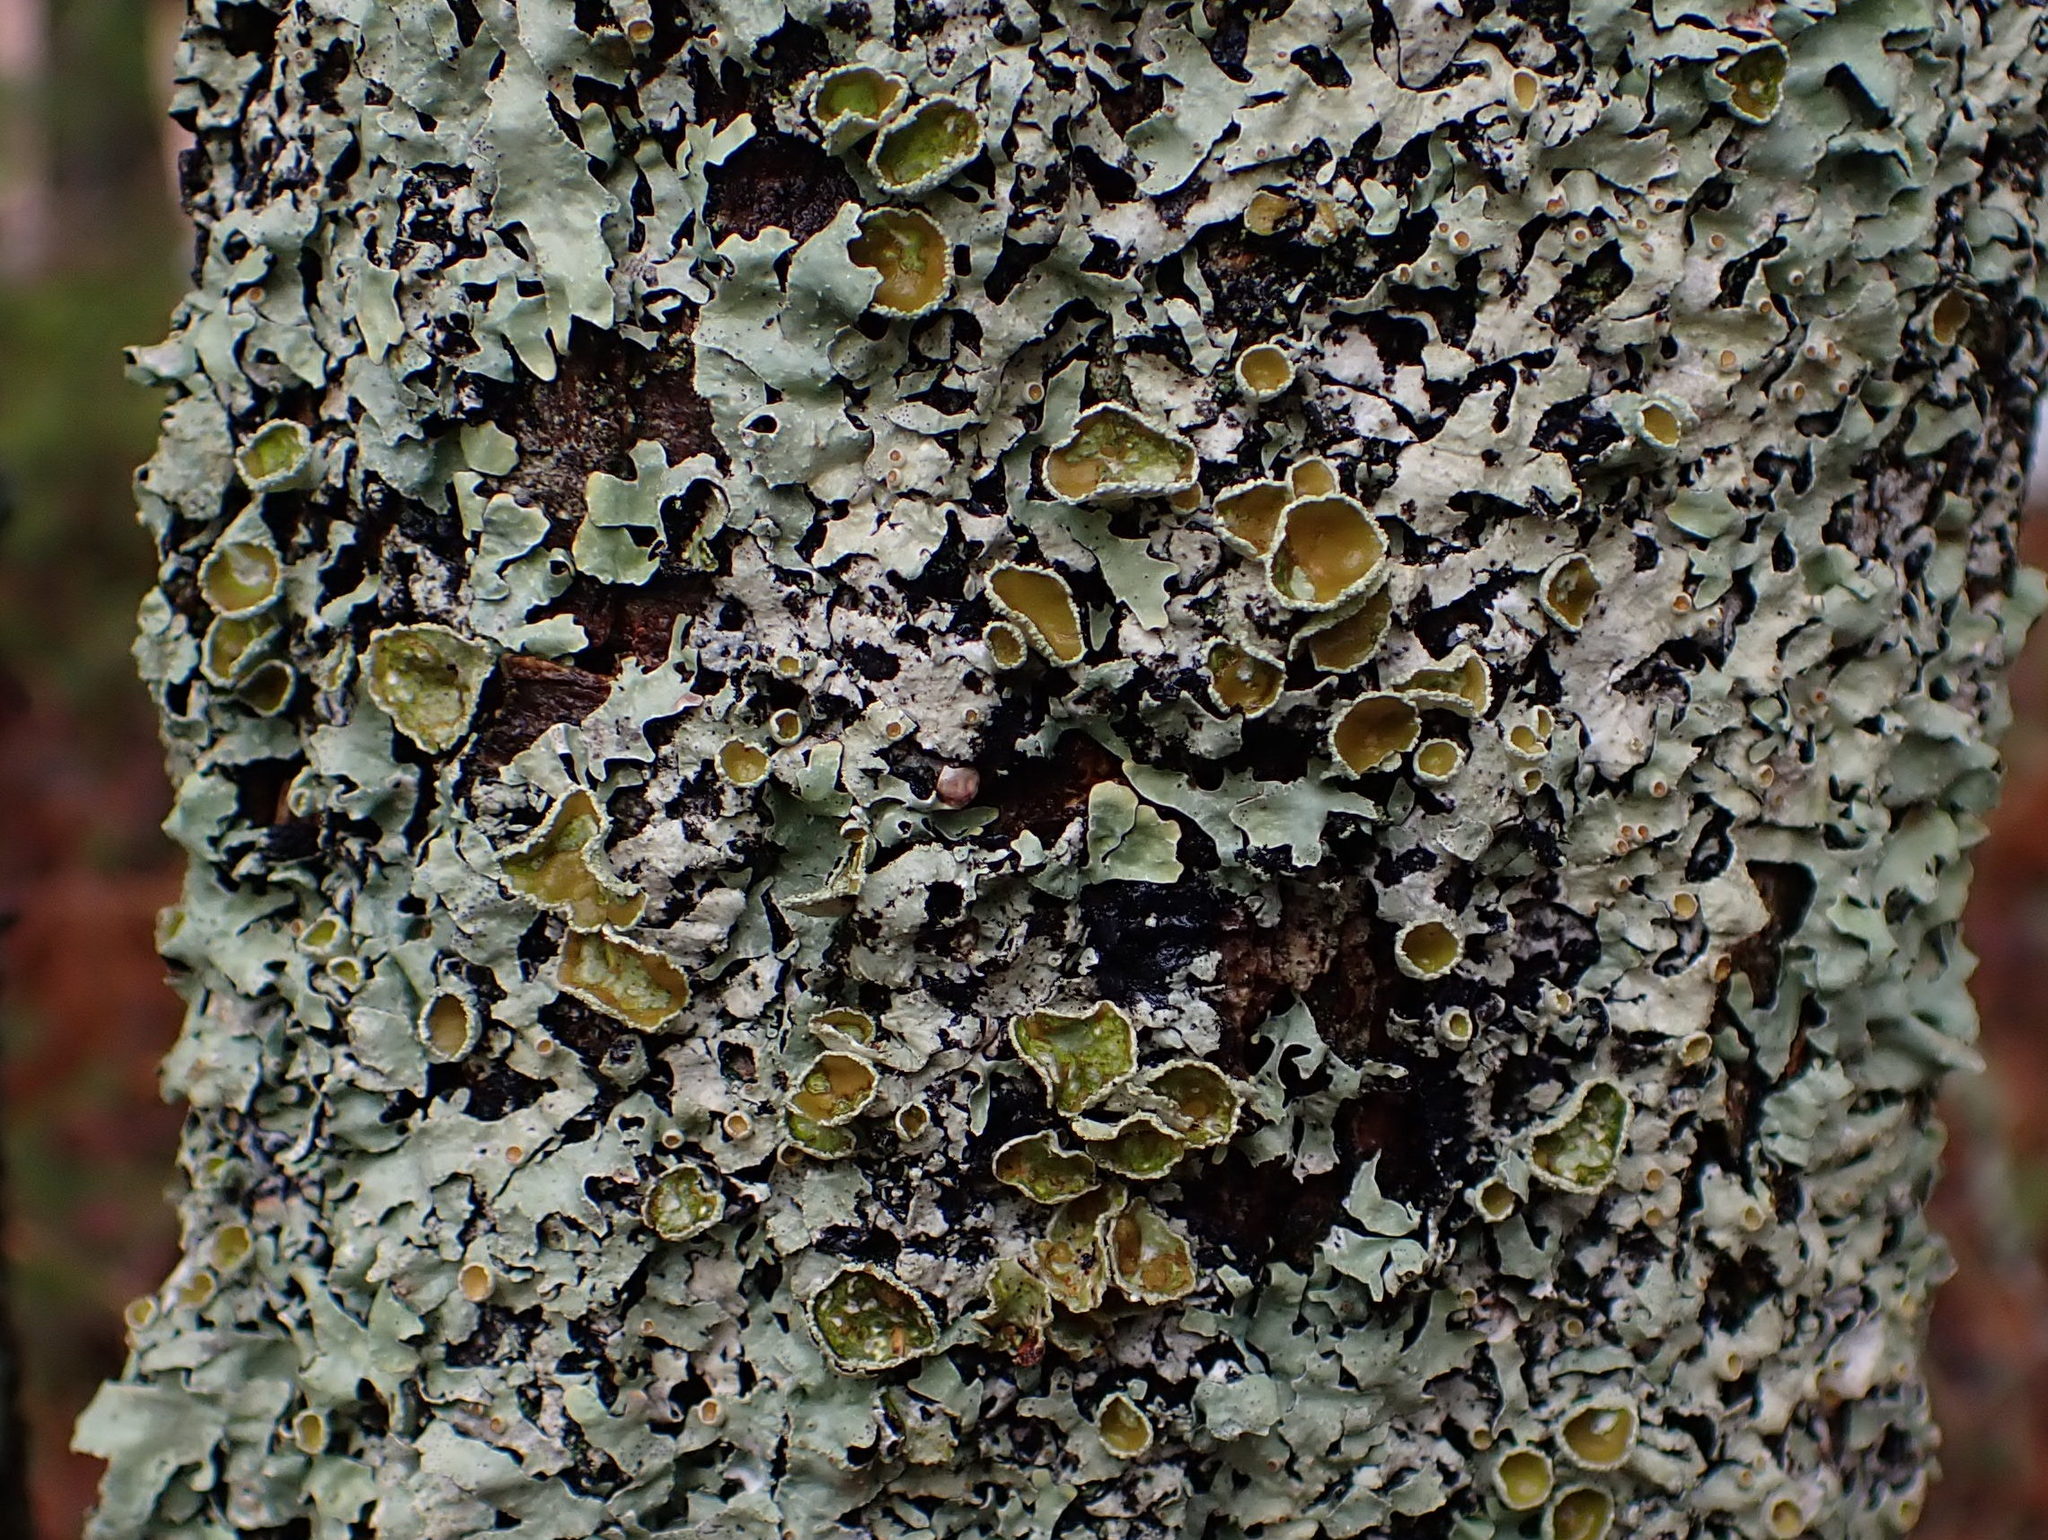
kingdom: Fungi
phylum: Ascomycota
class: Lecanoromycetes
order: Lecanorales
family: Parmeliaceae
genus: Parmelia
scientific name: Parmelia squarrosa
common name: Bottle brush shield lichen
